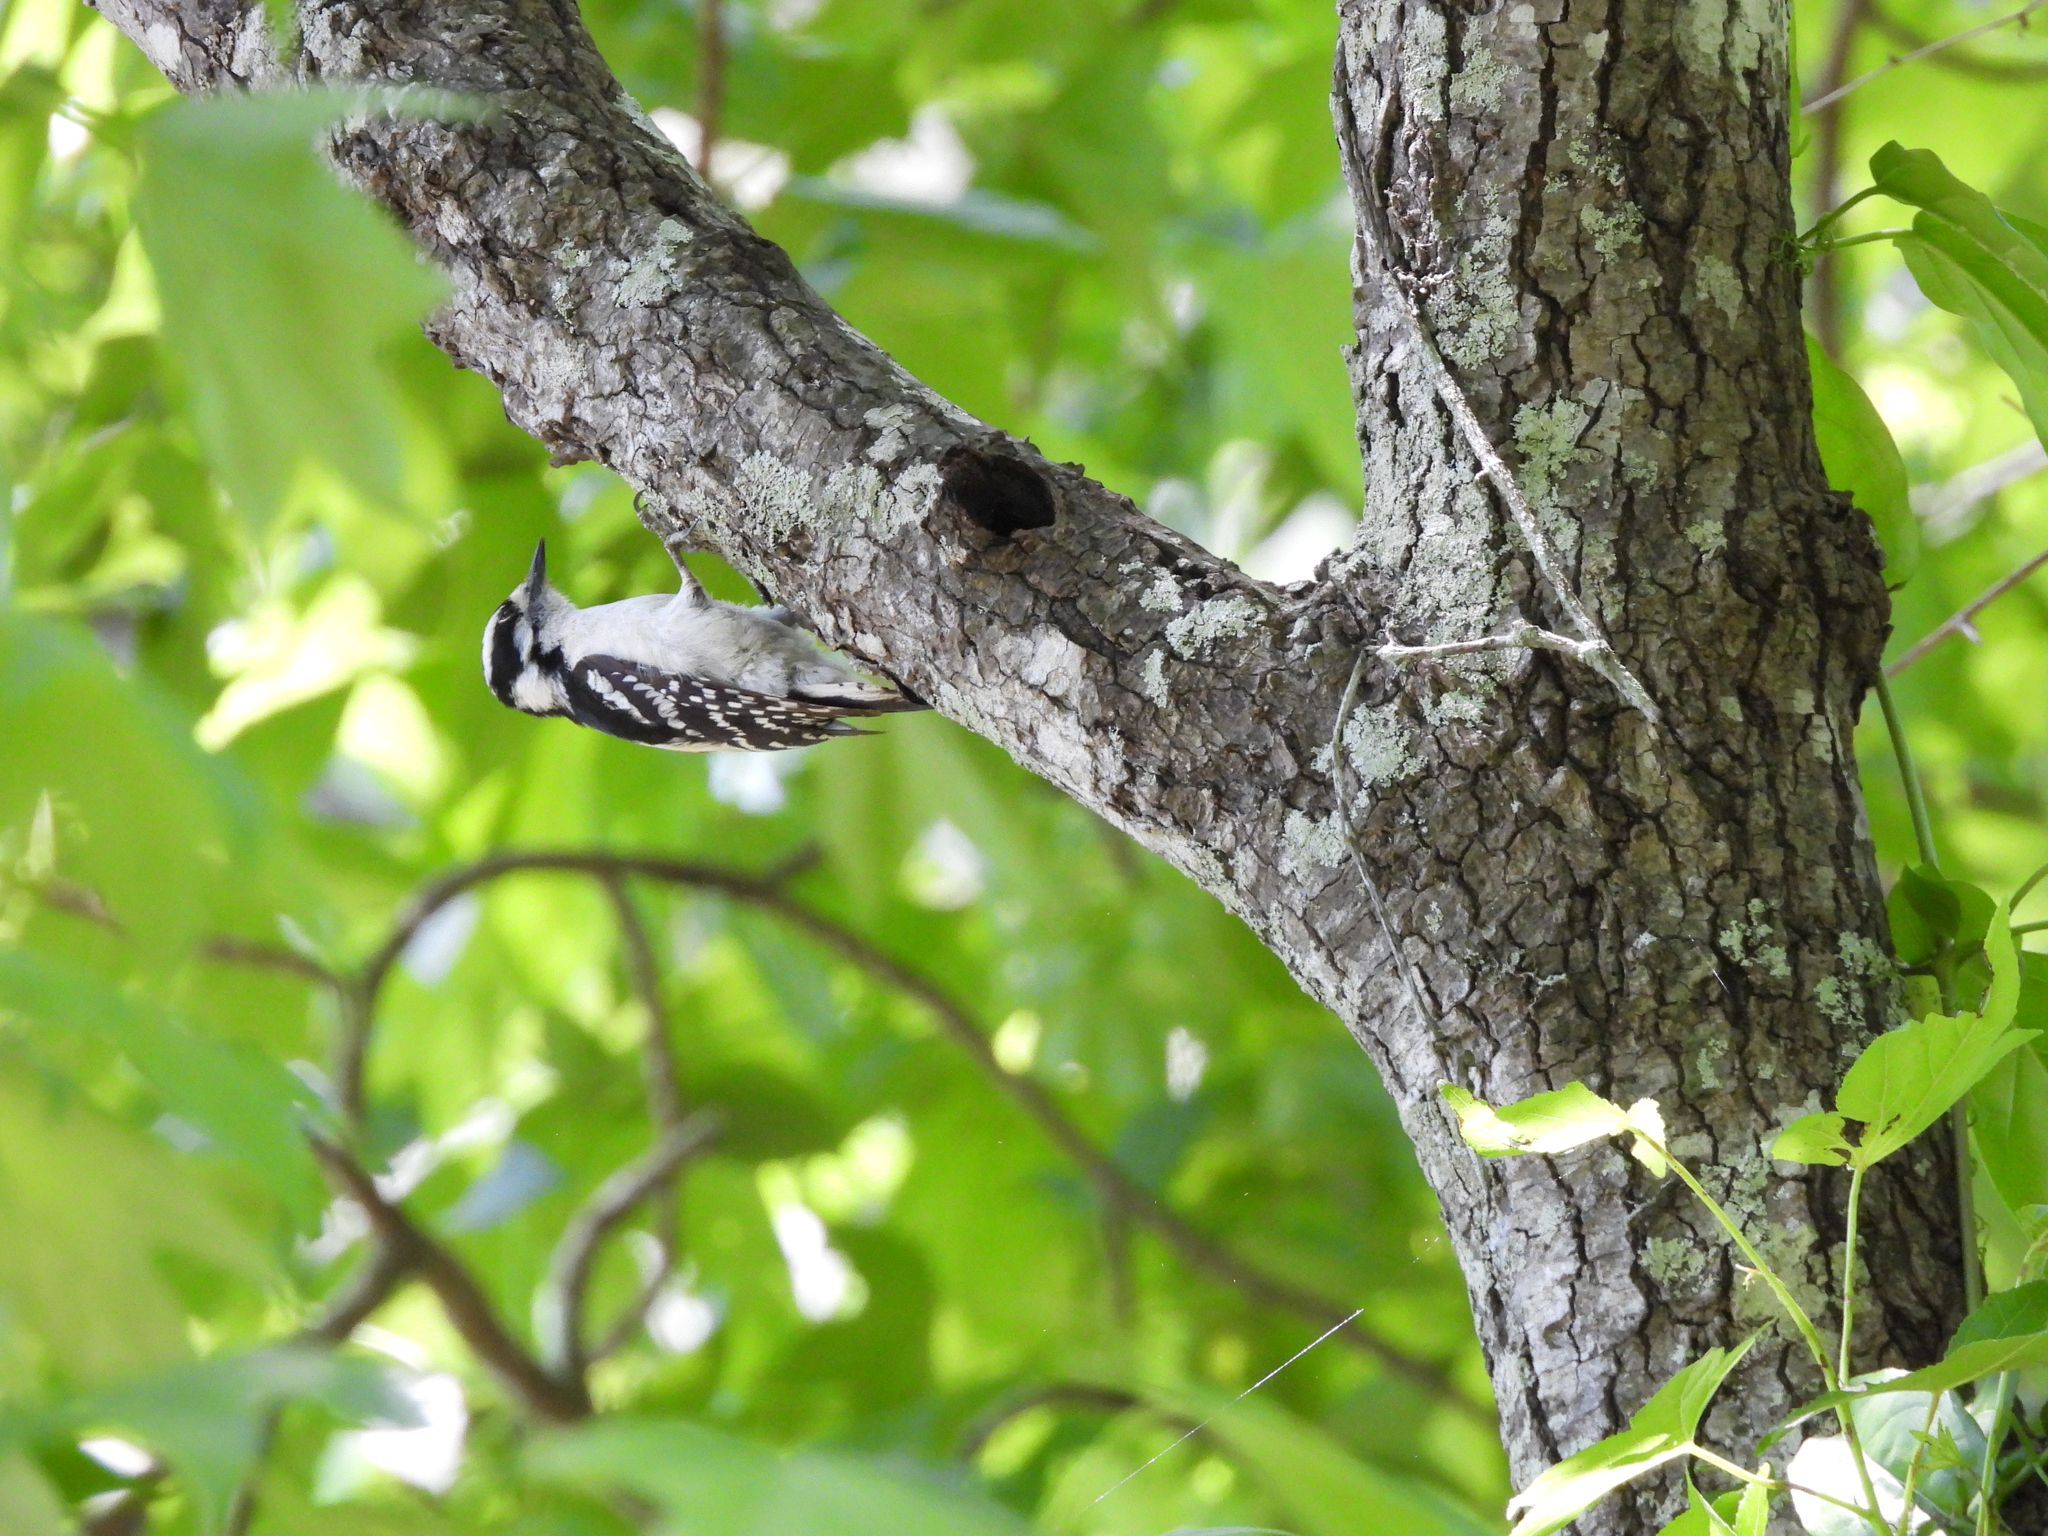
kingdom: Animalia
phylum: Chordata
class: Aves
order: Piciformes
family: Picidae
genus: Dryobates
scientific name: Dryobates pubescens
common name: Downy woodpecker
